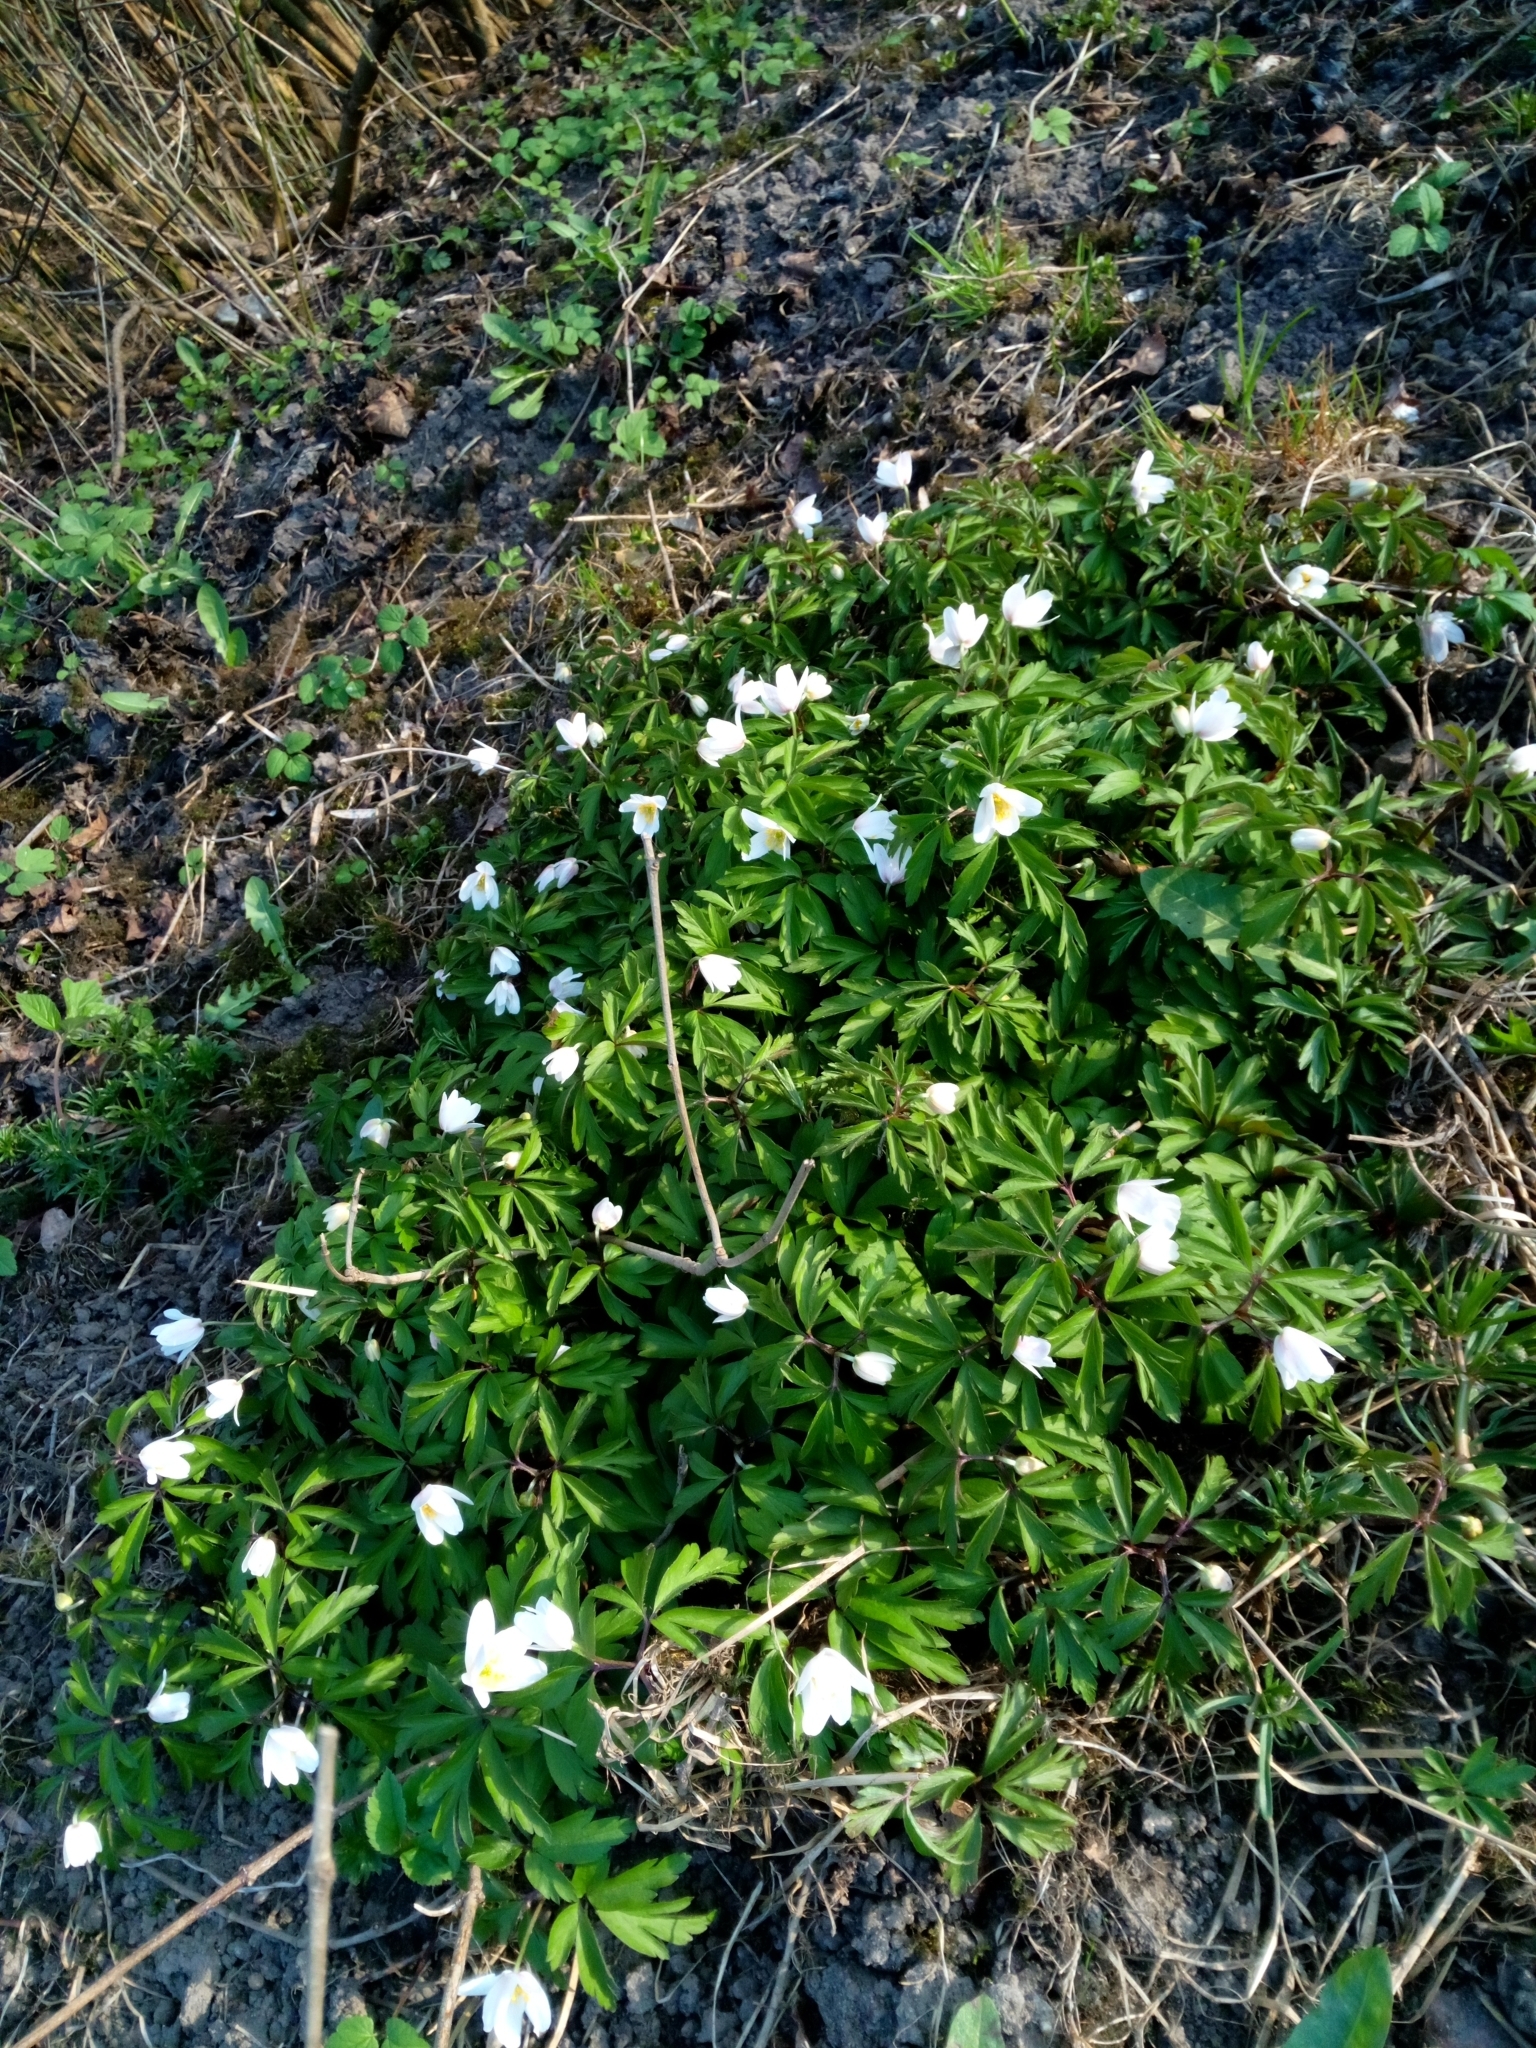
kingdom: Plantae
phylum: Tracheophyta
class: Magnoliopsida
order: Ranunculales
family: Ranunculaceae
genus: Anemone
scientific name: Anemone nemorosa
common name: Wood anemone
